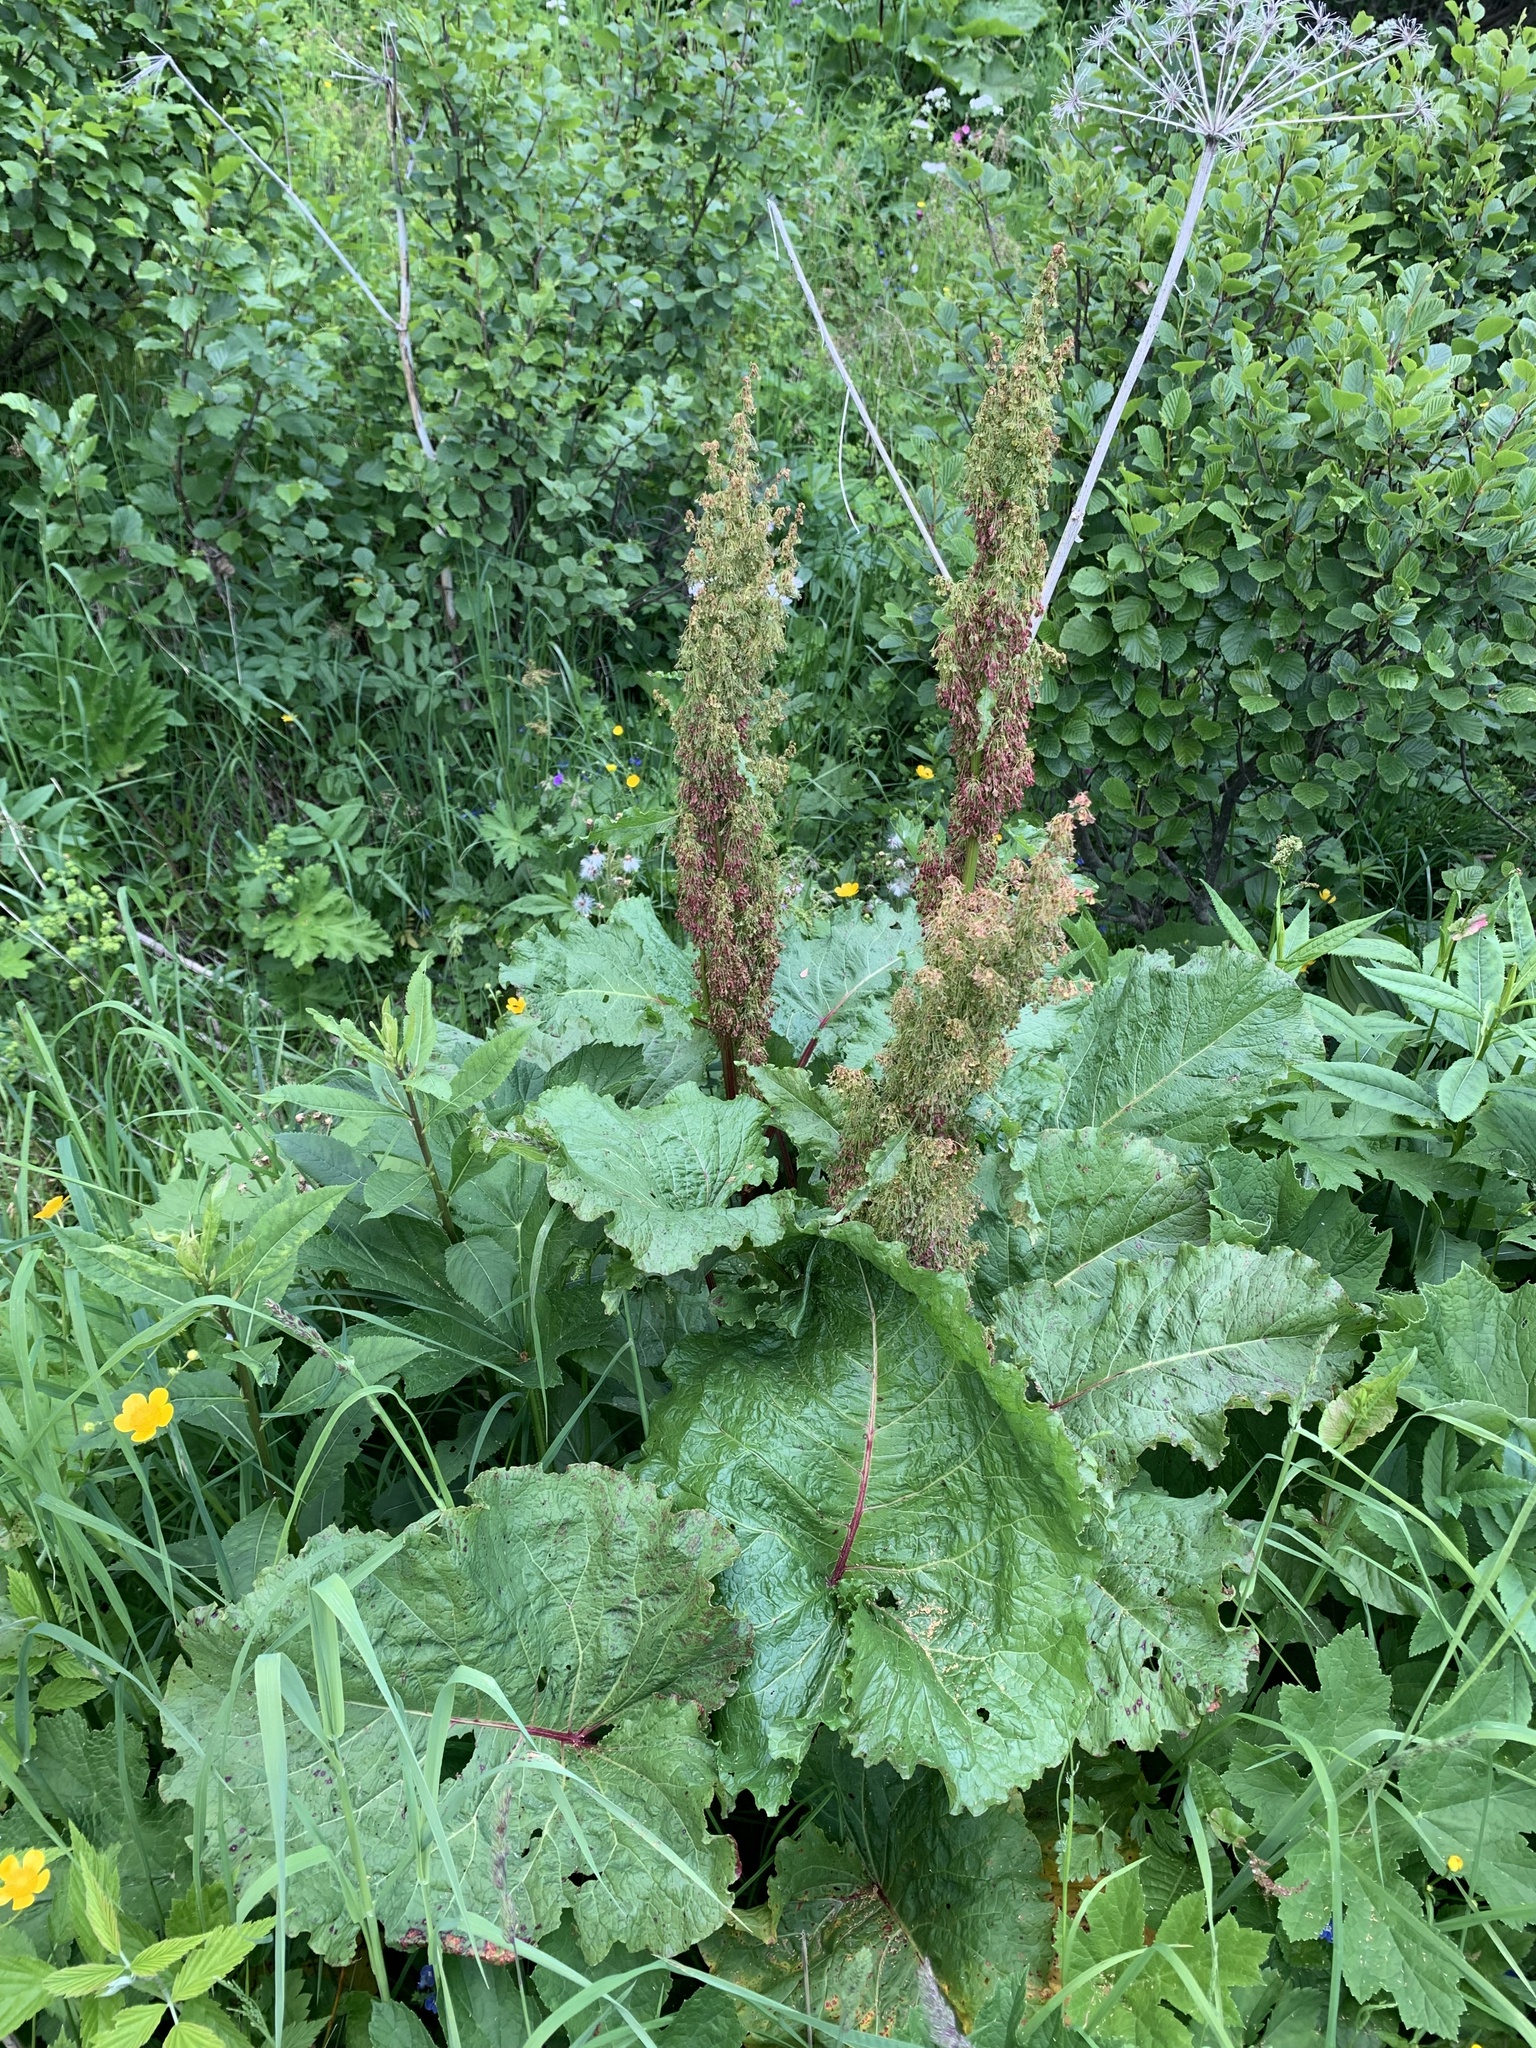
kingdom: Plantae
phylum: Tracheophyta
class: Magnoliopsida
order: Caryophyllales
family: Polygonaceae
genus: Rumex
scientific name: Rumex alpinus
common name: Alpine dock
